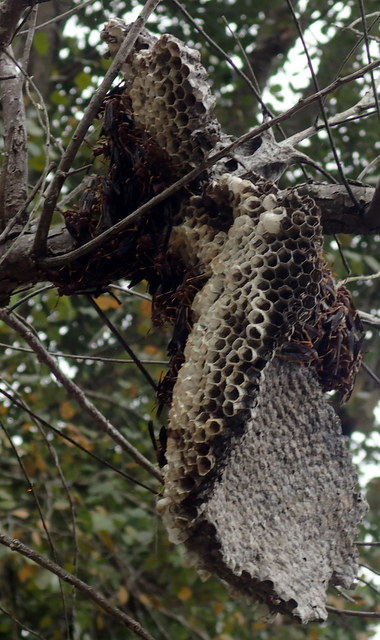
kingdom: Animalia
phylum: Arthropoda
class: Insecta
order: Hymenoptera
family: Eumenidae
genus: Polistes
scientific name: Polistes annularis
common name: Ringed paper wasp
